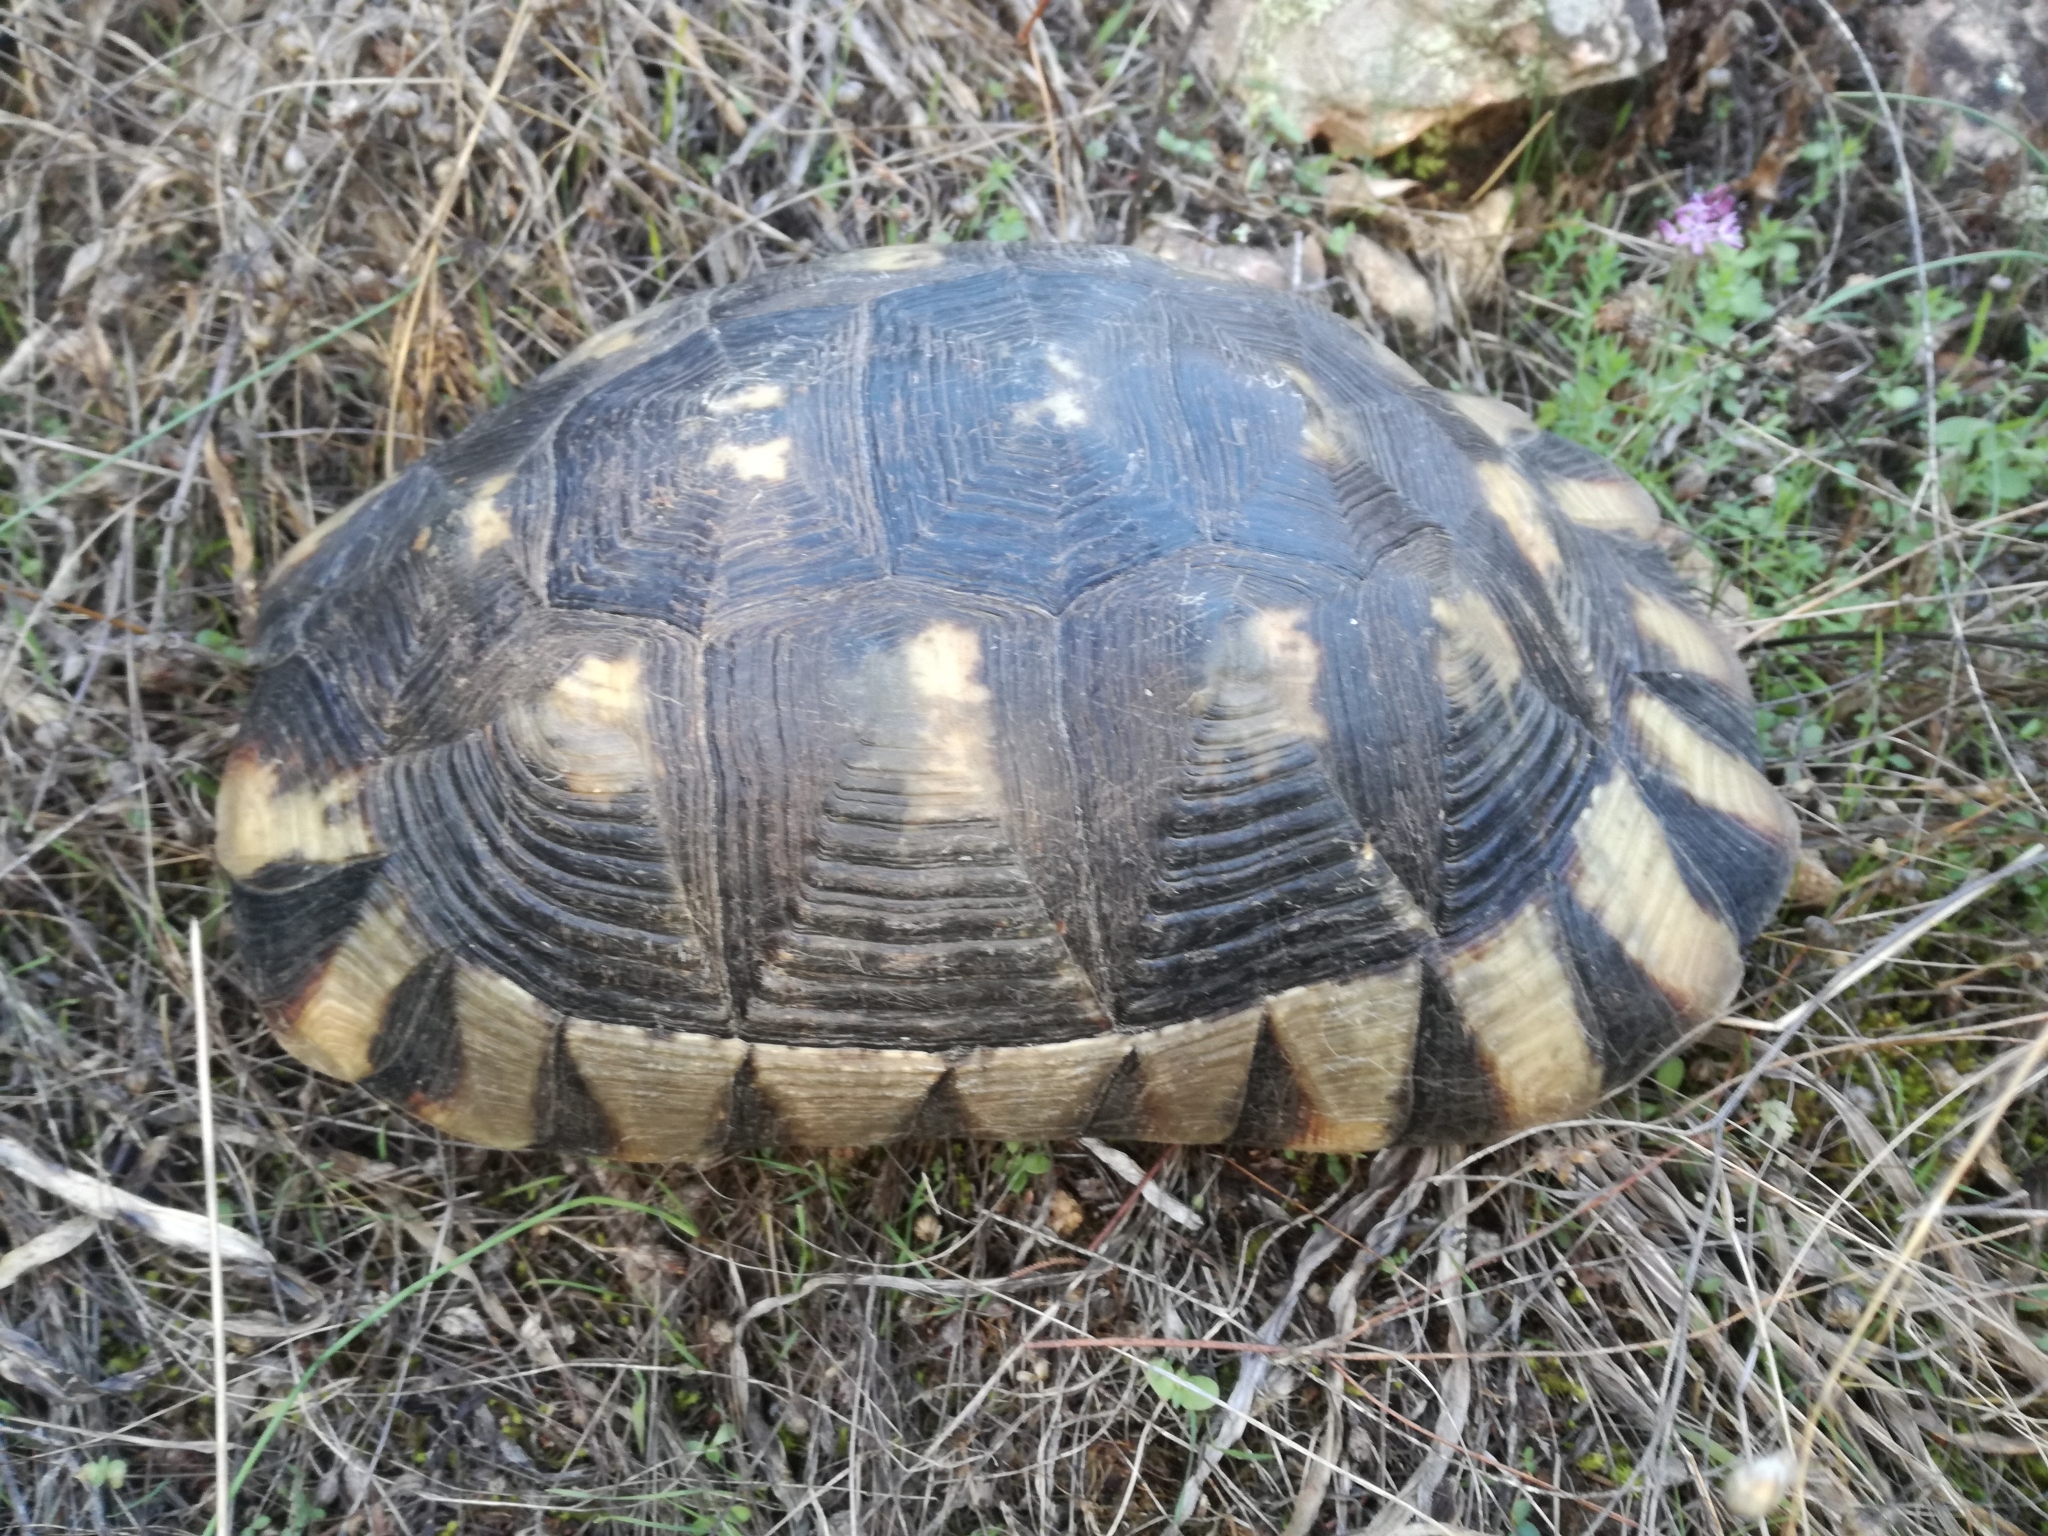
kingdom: Animalia
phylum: Chordata
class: Testudines
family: Testudinidae
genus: Testudo
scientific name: Testudo marginata
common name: Marginated tortoise
